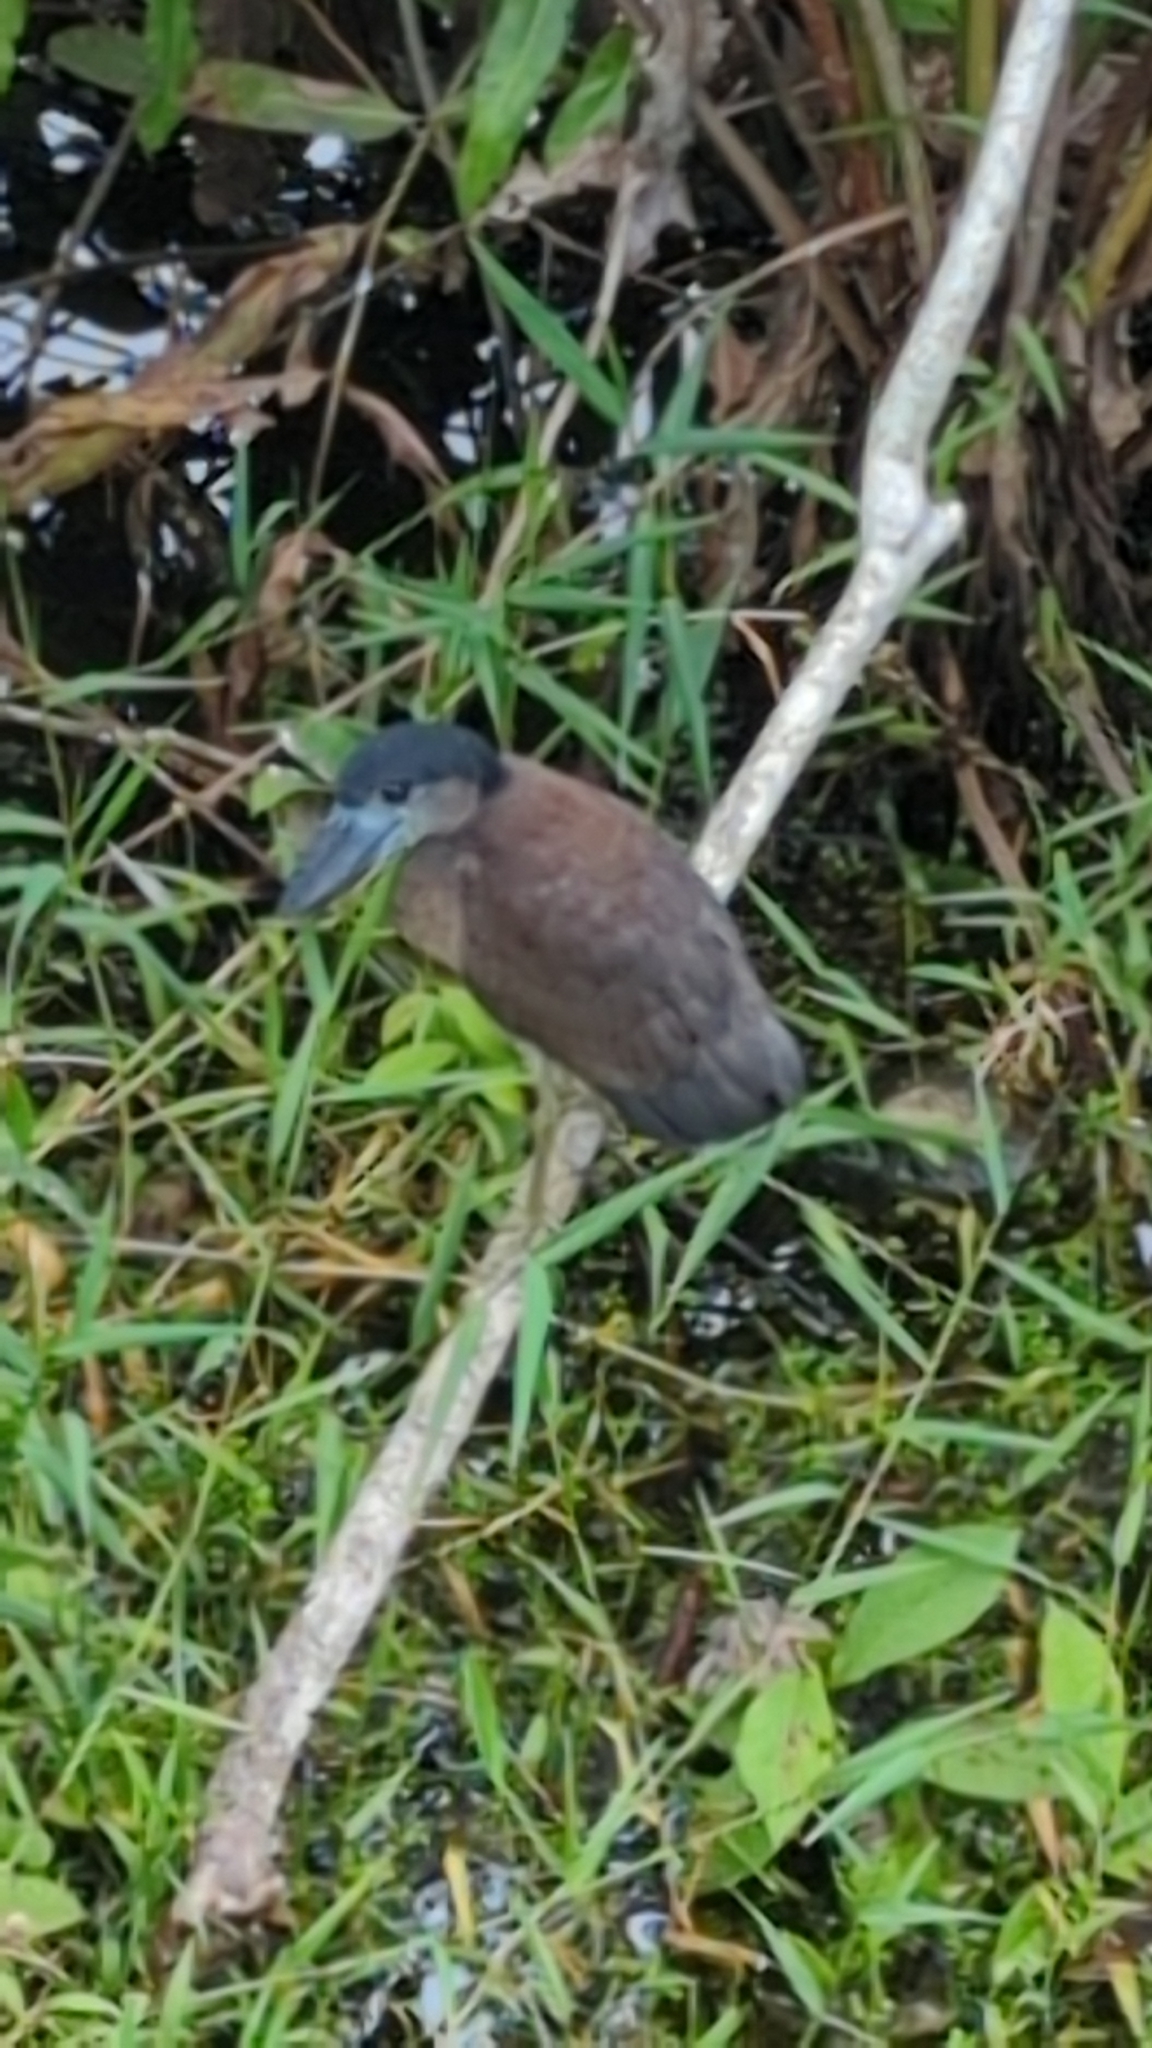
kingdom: Animalia
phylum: Chordata
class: Aves
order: Pelecaniformes
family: Ardeidae
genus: Cochlearius
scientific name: Cochlearius cochlearius
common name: Boat-billed heron
